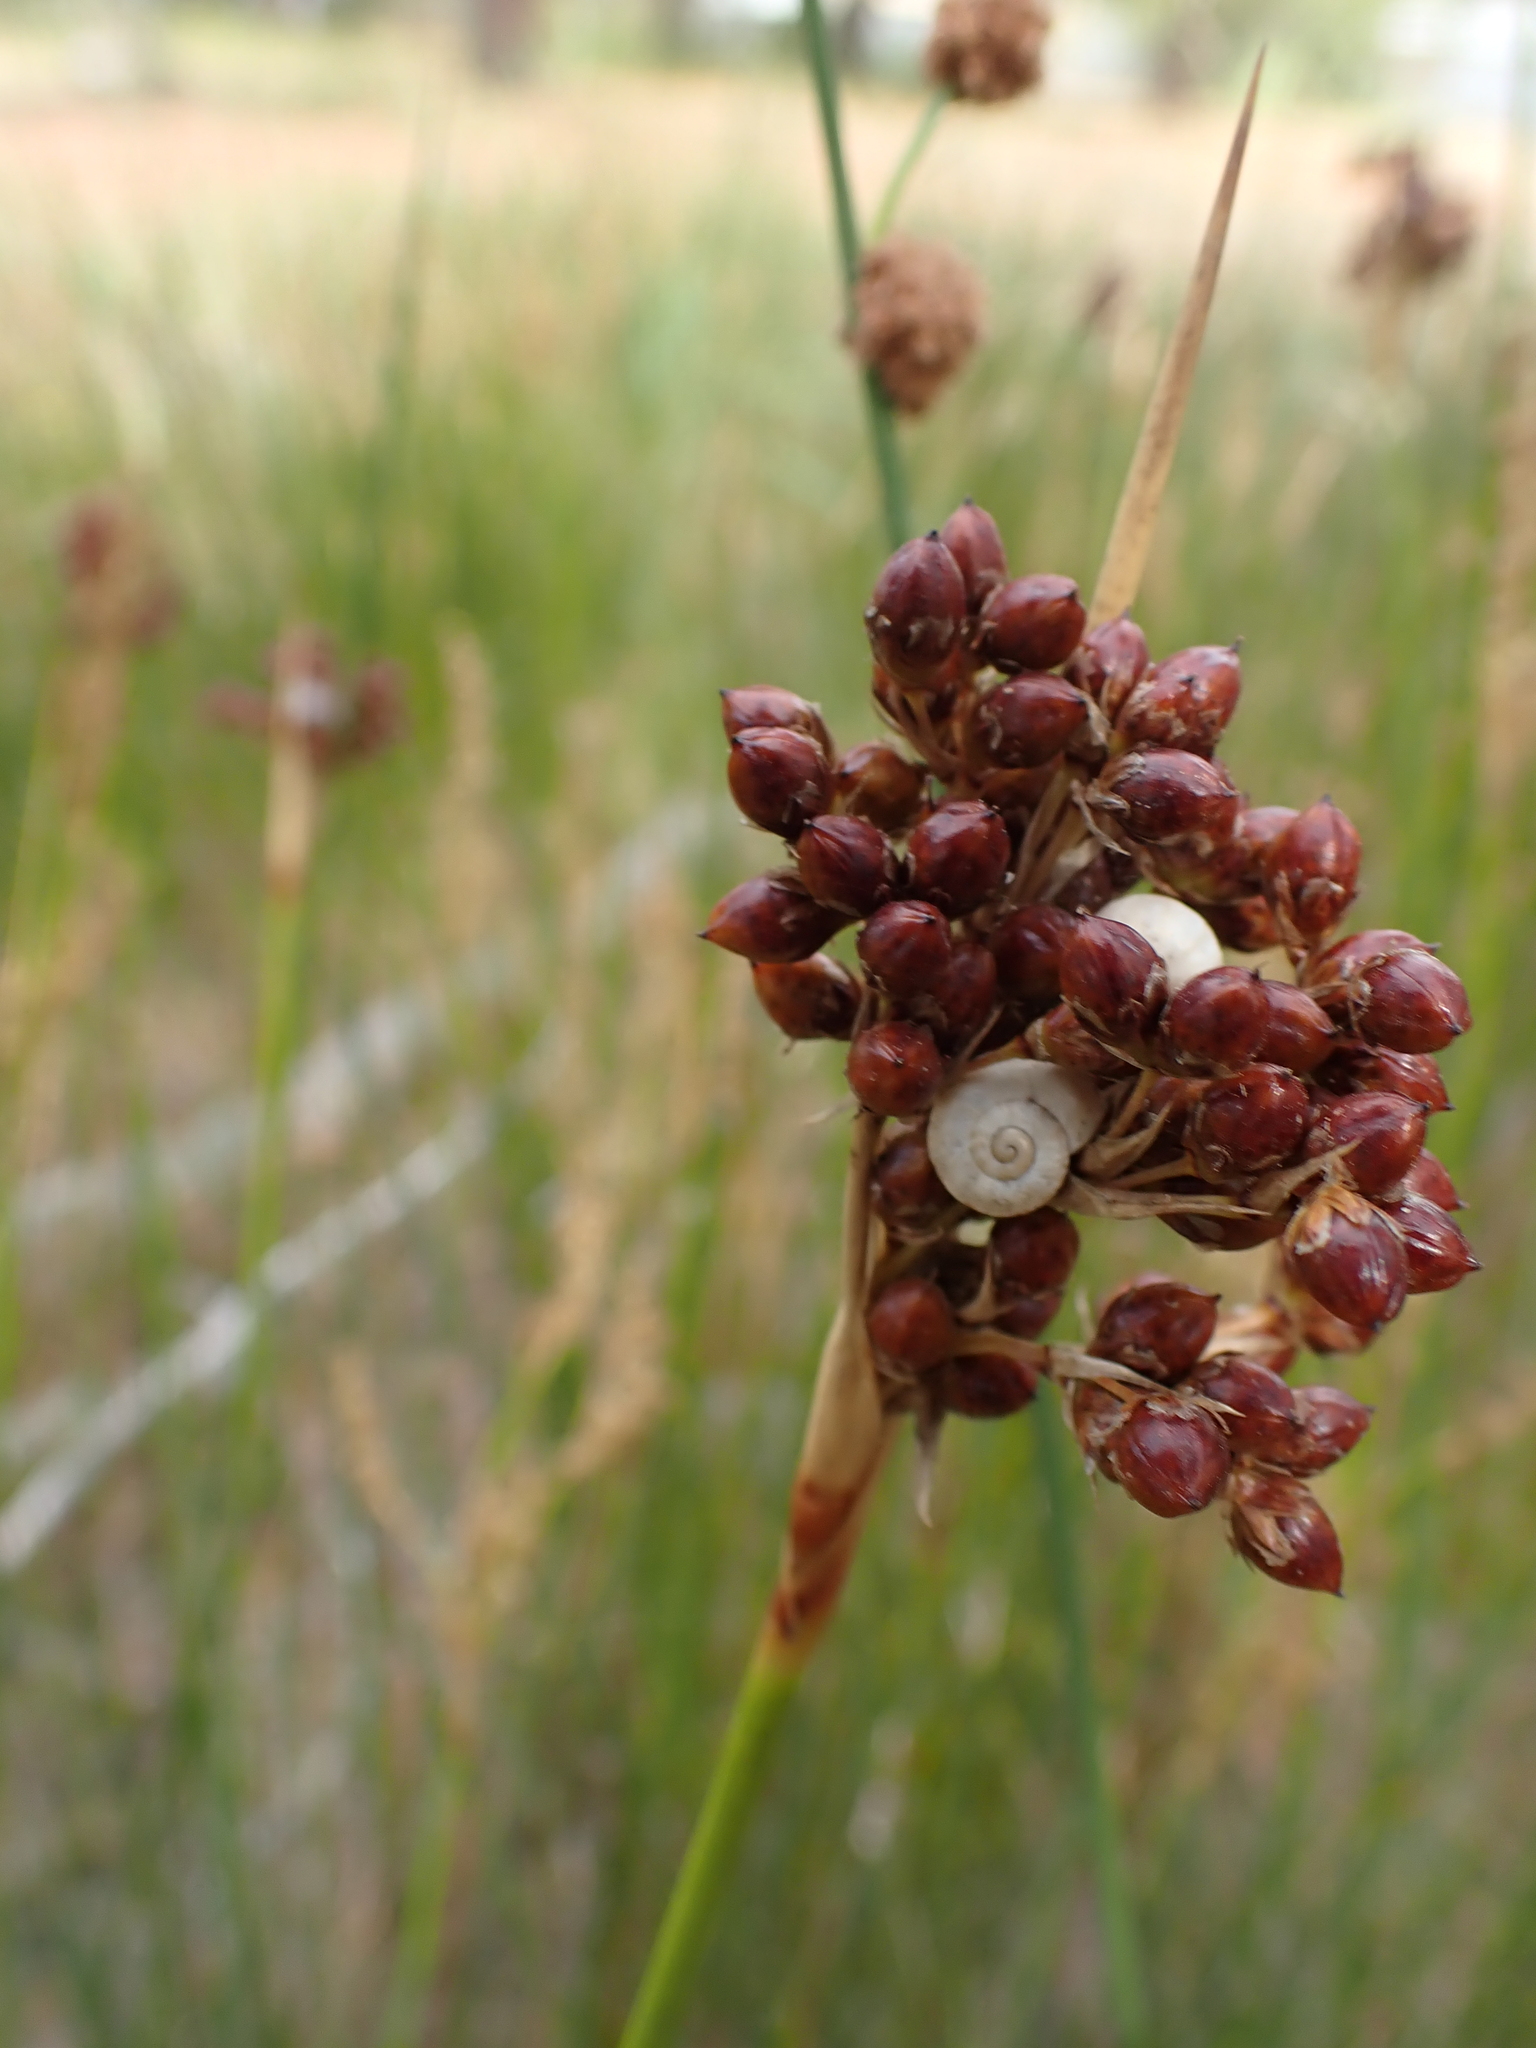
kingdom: Plantae
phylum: Tracheophyta
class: Liliopsida
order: Poales
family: Juncaceae
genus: Juncus
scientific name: Juncus acutus
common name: Sharp rush
